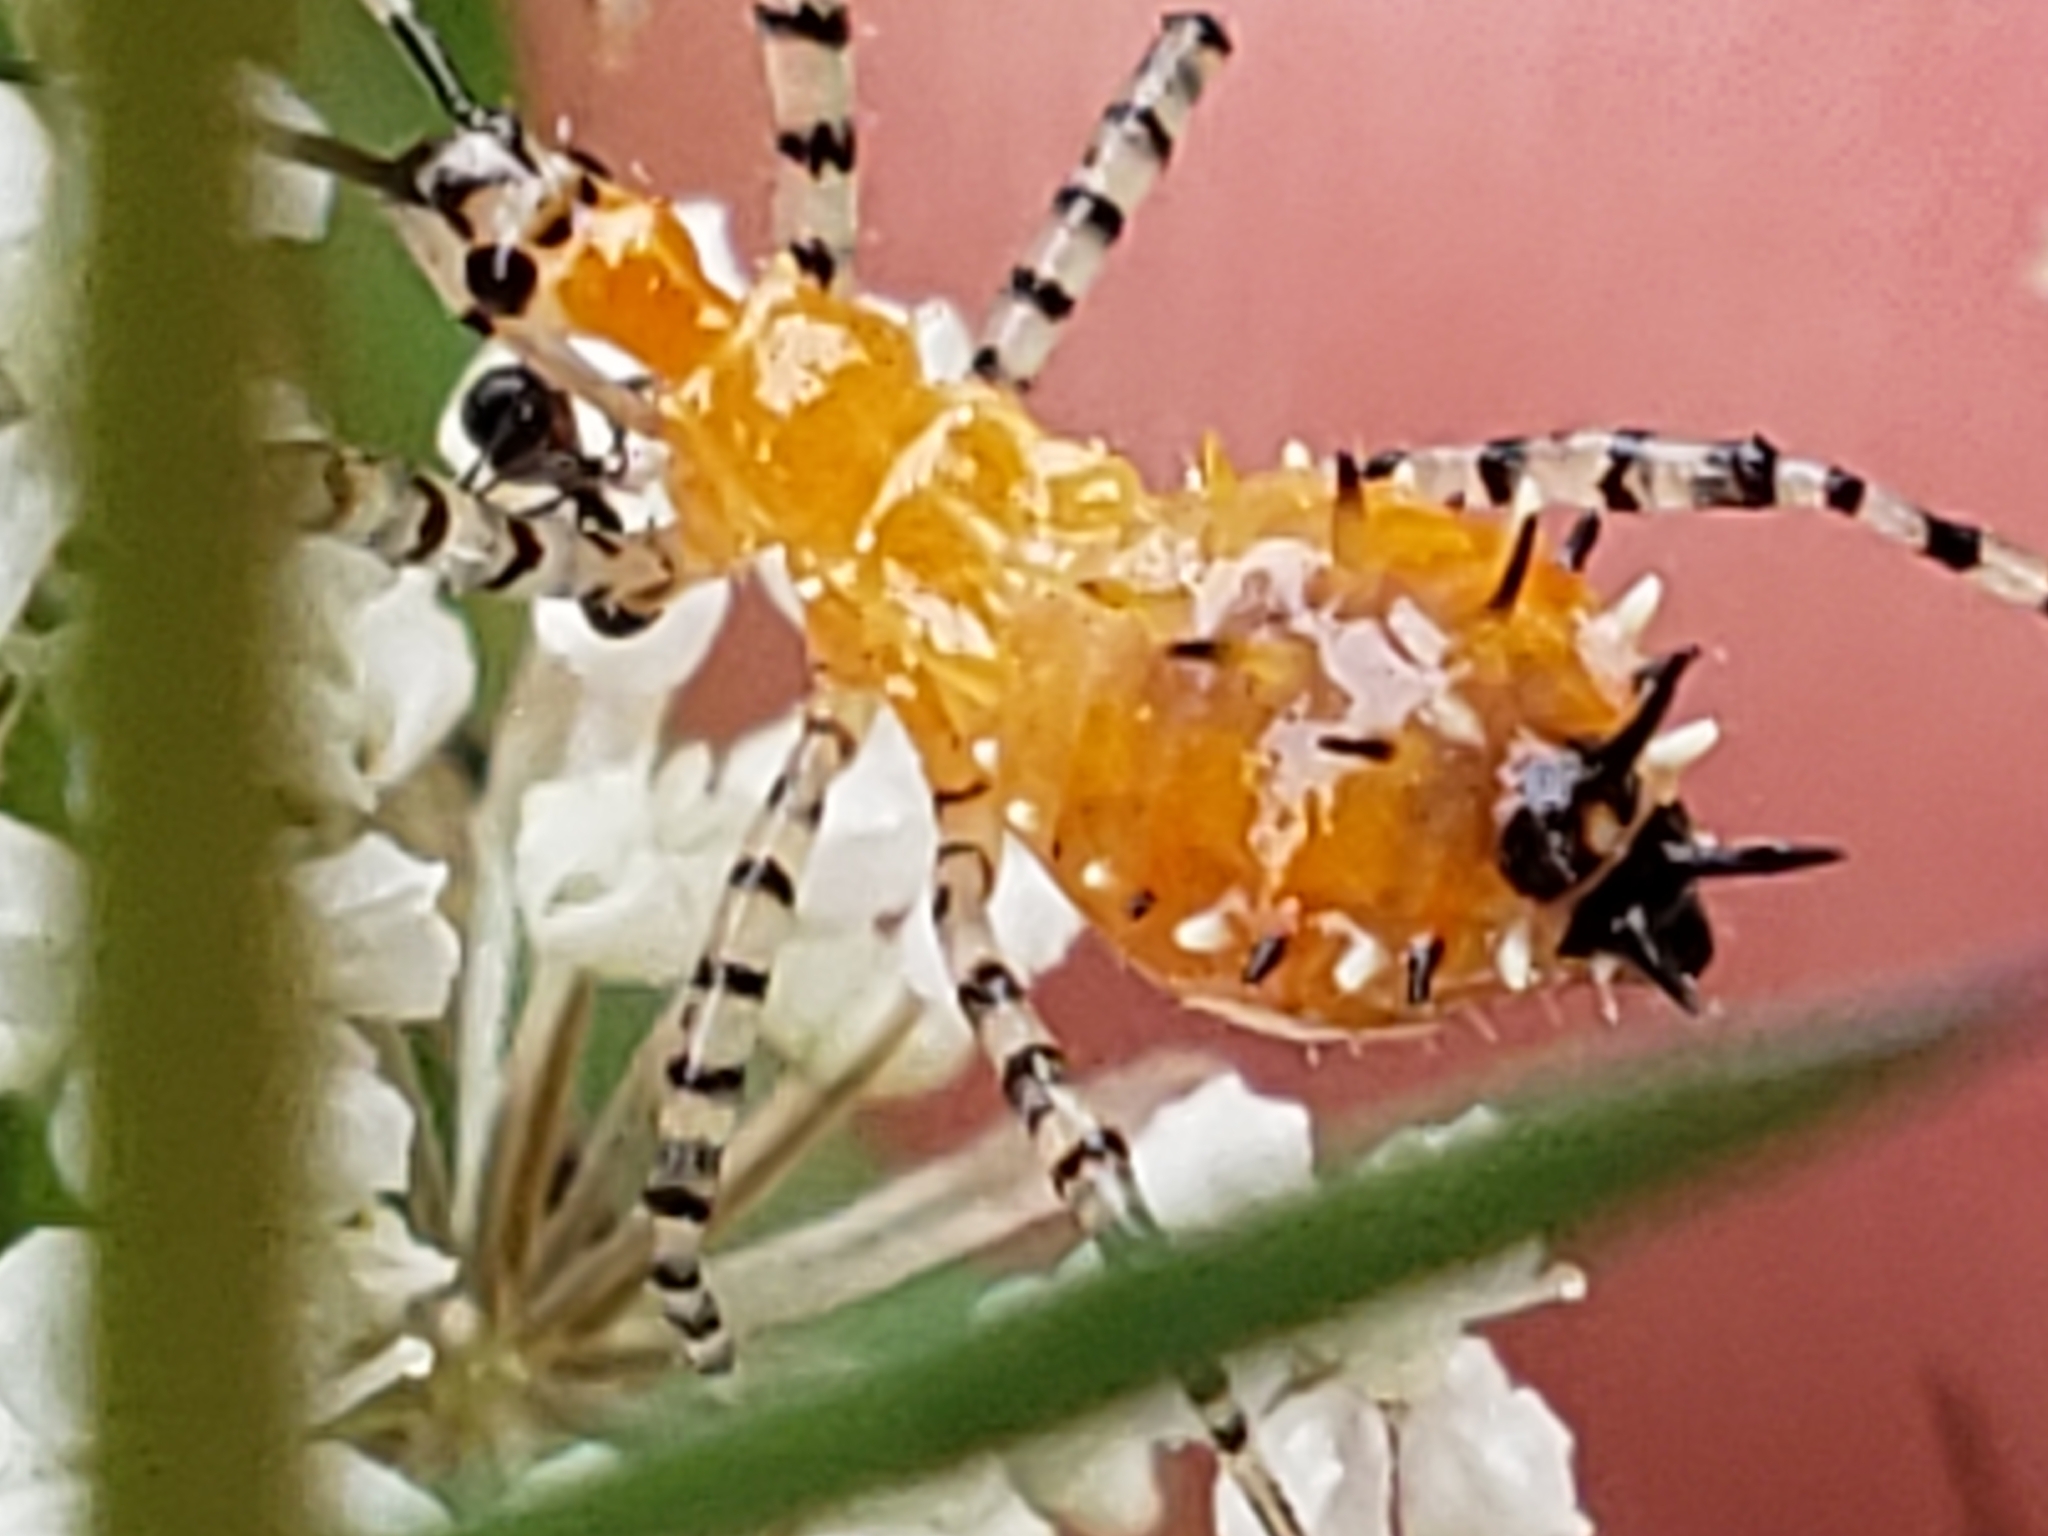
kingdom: Animalia
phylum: Arthropoda
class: Insecta
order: Hemiptera
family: Reduviidae
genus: Pselliopus
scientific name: Pselliopus cinctus
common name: Ringed assassin bug
